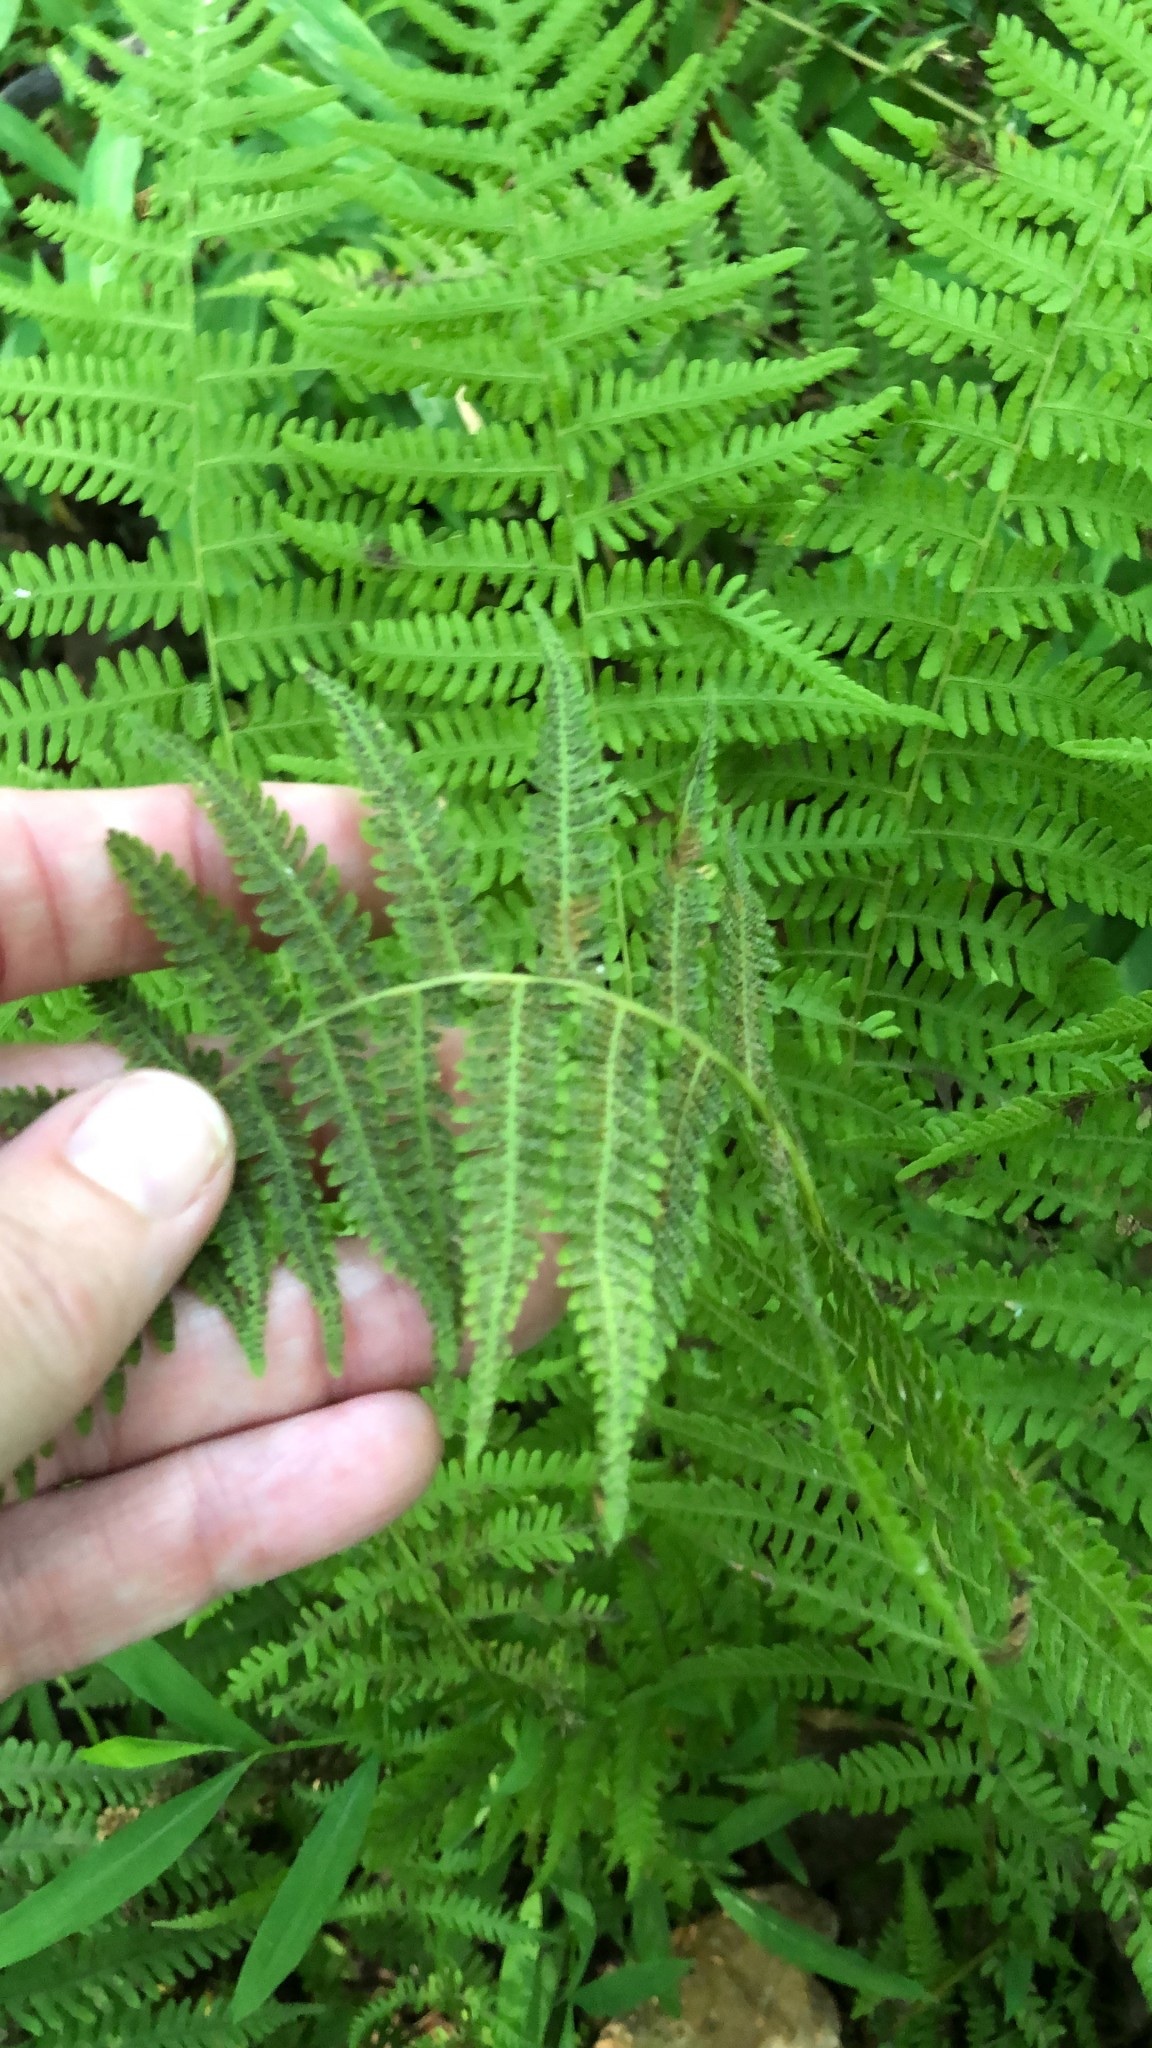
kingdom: Plantae
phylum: Tracheophyta
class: Polypodiopsida
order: Polypodiales
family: Thelypteridaceae
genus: Amauropelta
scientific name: Amauropelta noveboracensis
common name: New york fern
